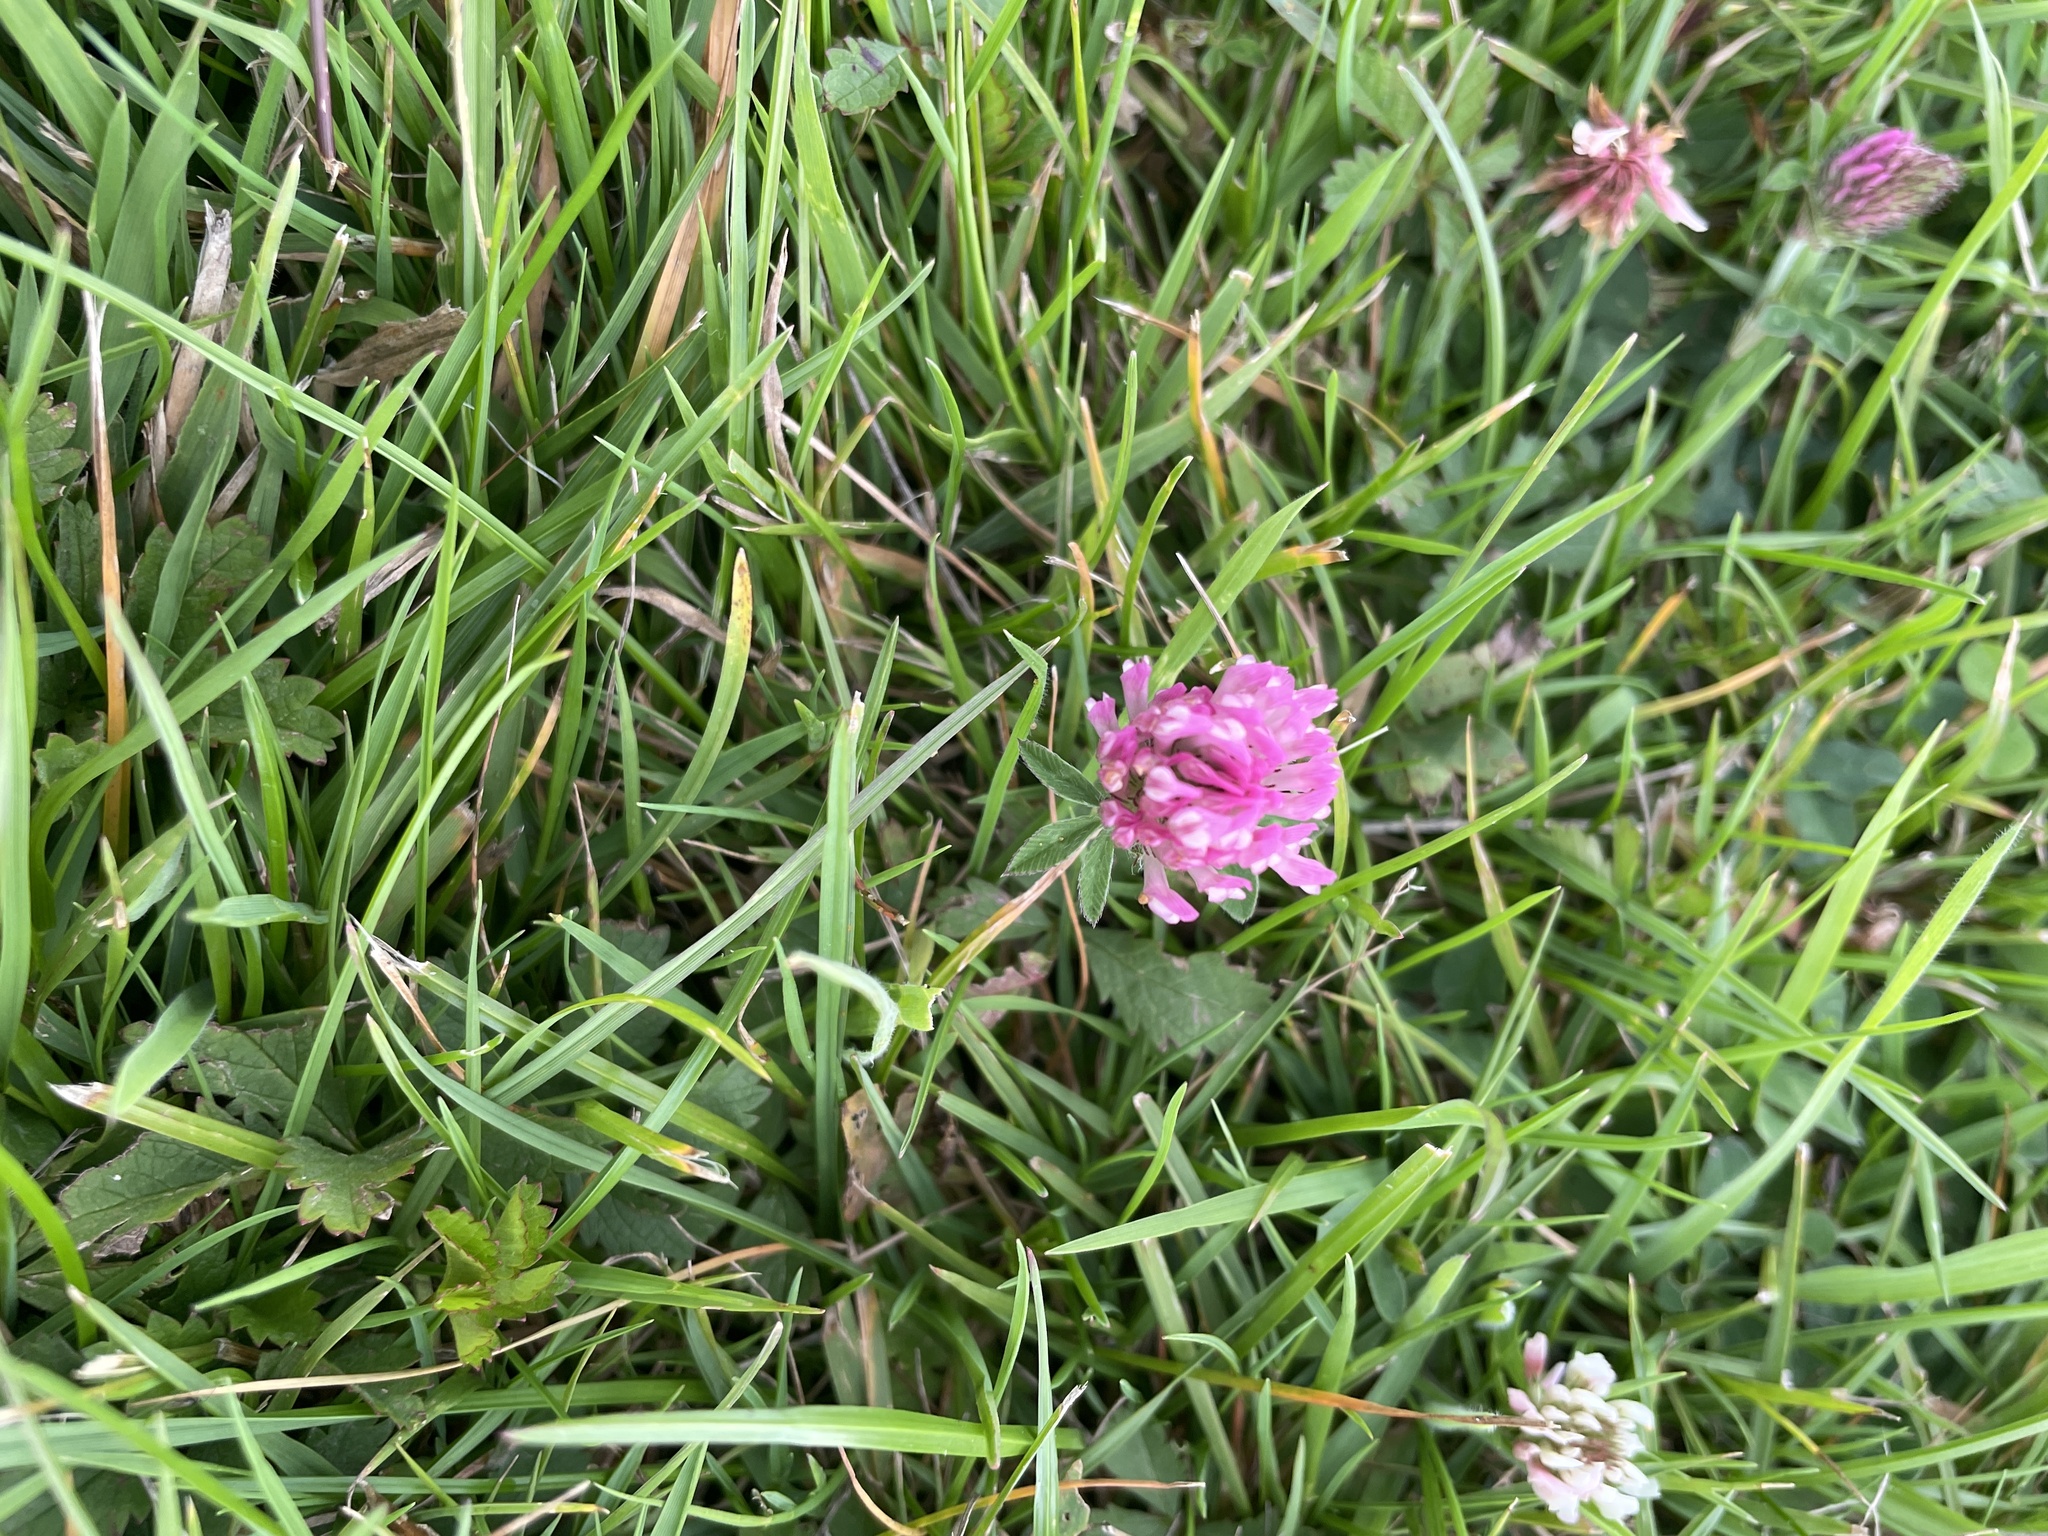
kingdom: Plantae
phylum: Tracheophyta
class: Magnoliopsida
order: Fabales
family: Fabaceae
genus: Trifolium
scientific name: Trifolium pratense
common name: Red clover
